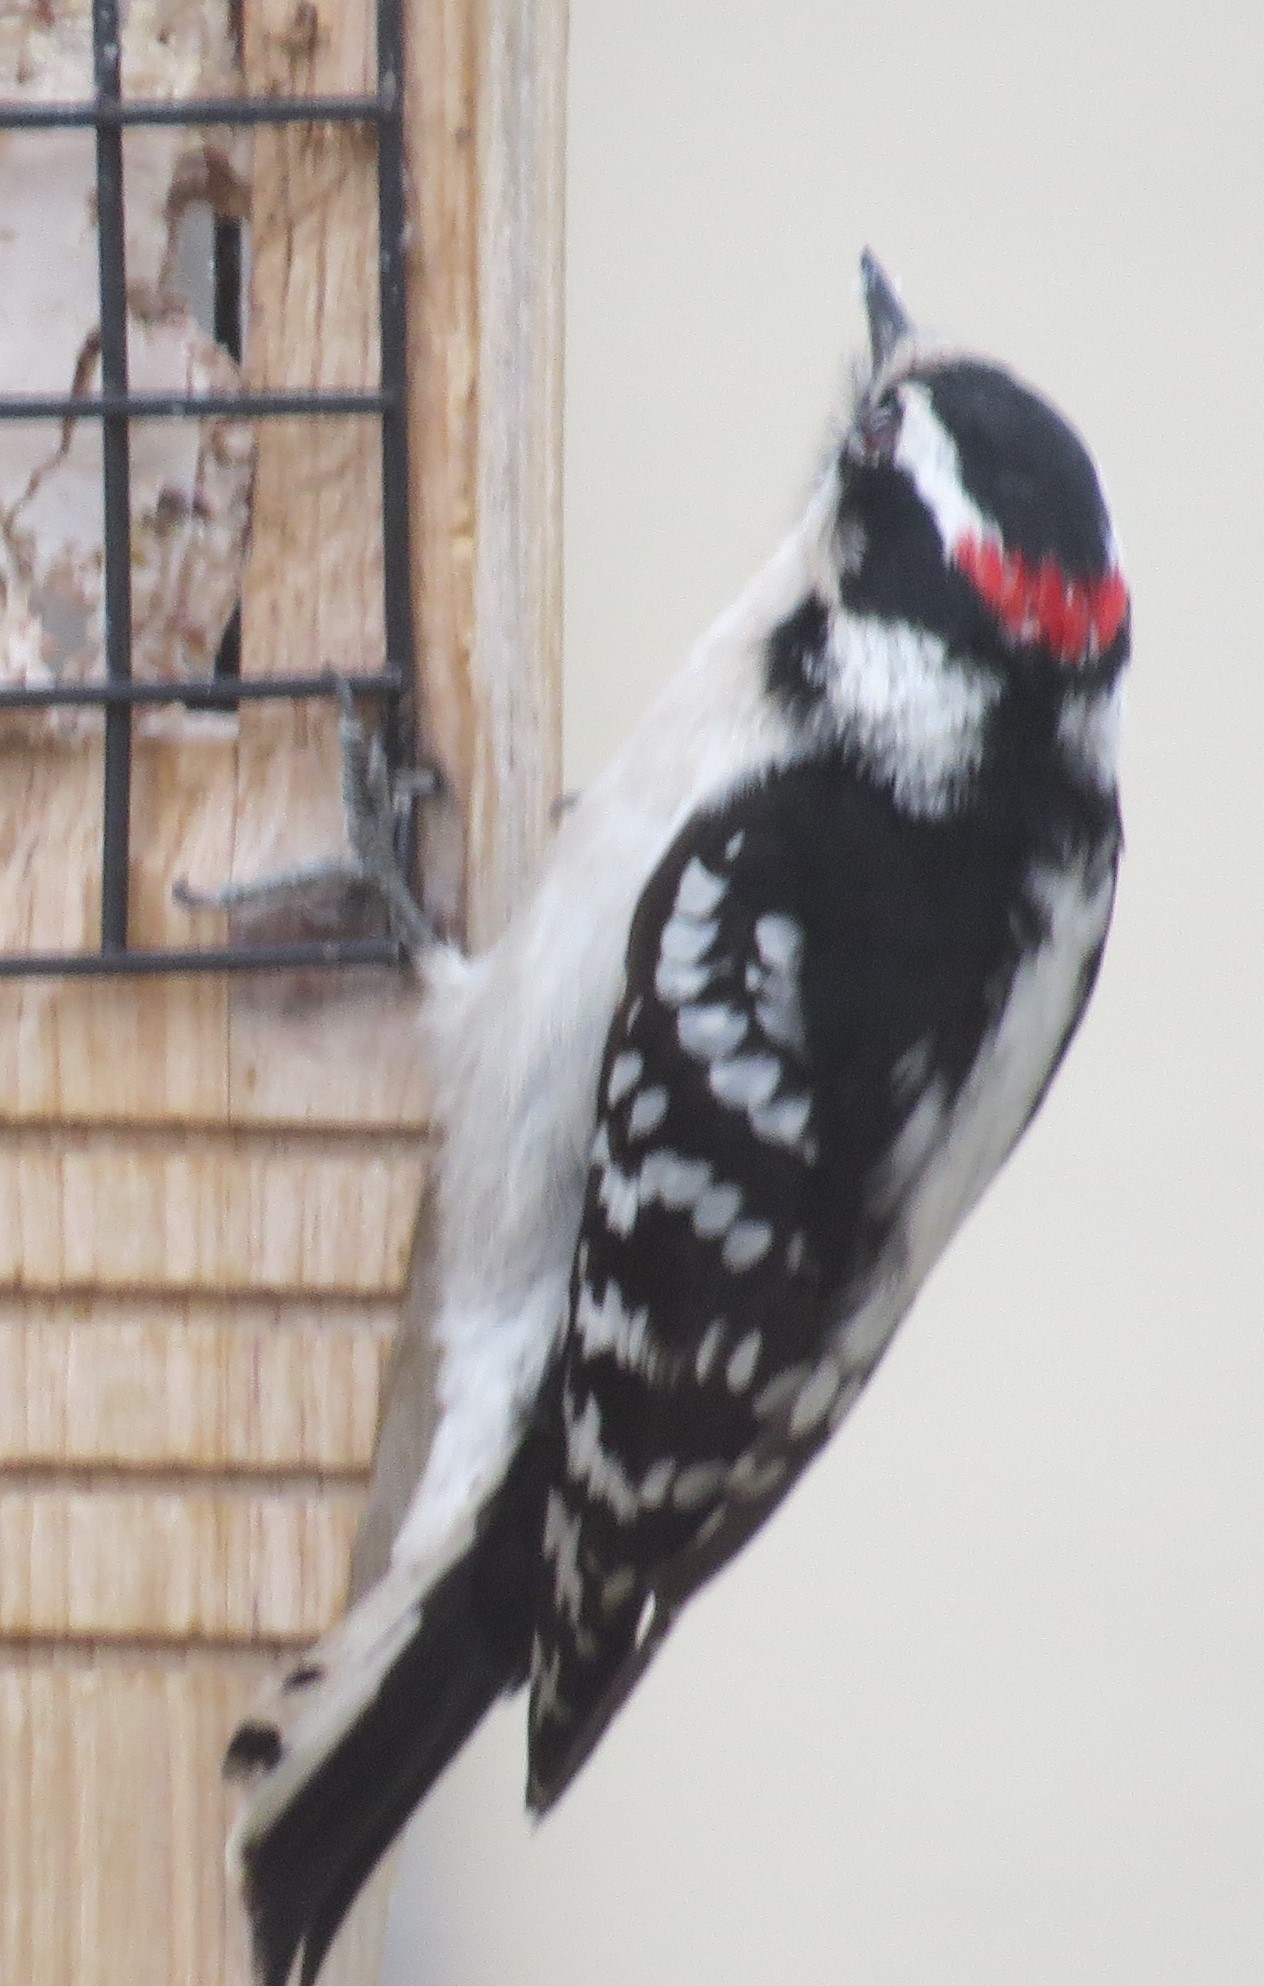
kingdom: Animalia
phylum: Chordata
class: Aves
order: Piciformes
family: Picidae
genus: Dryobates
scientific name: Dryobates pubescens
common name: Downy woodpecker
